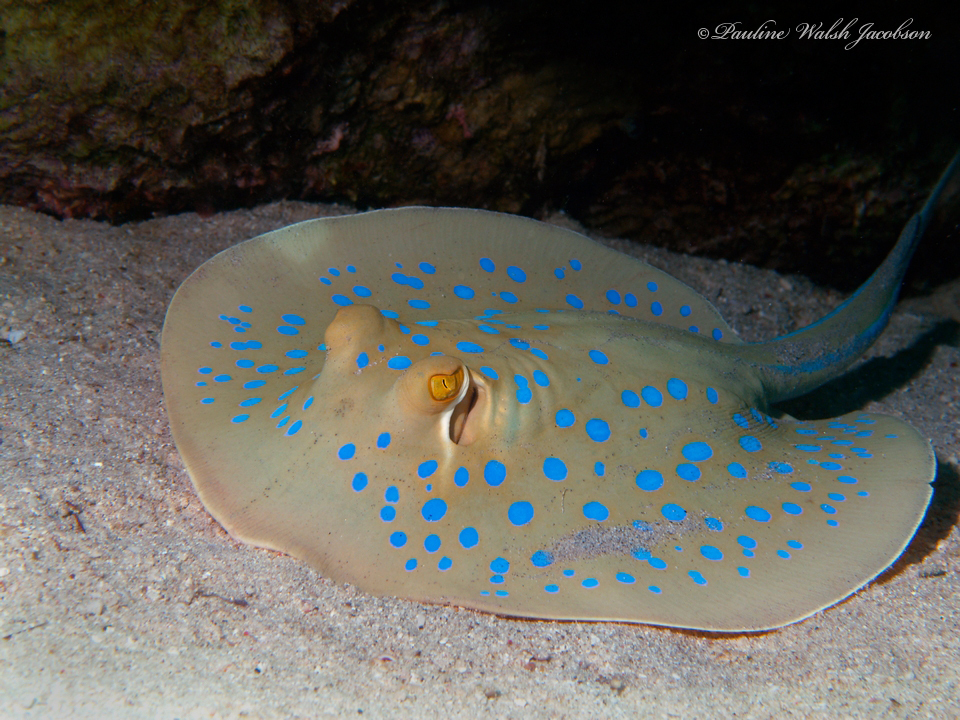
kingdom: Animalia
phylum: Chordata
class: Elasmobranchii
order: Myliobatiformes
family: Dasyatidae
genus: Taeniura
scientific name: Taeniura lymma
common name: Bluespotted ribbontail ray
